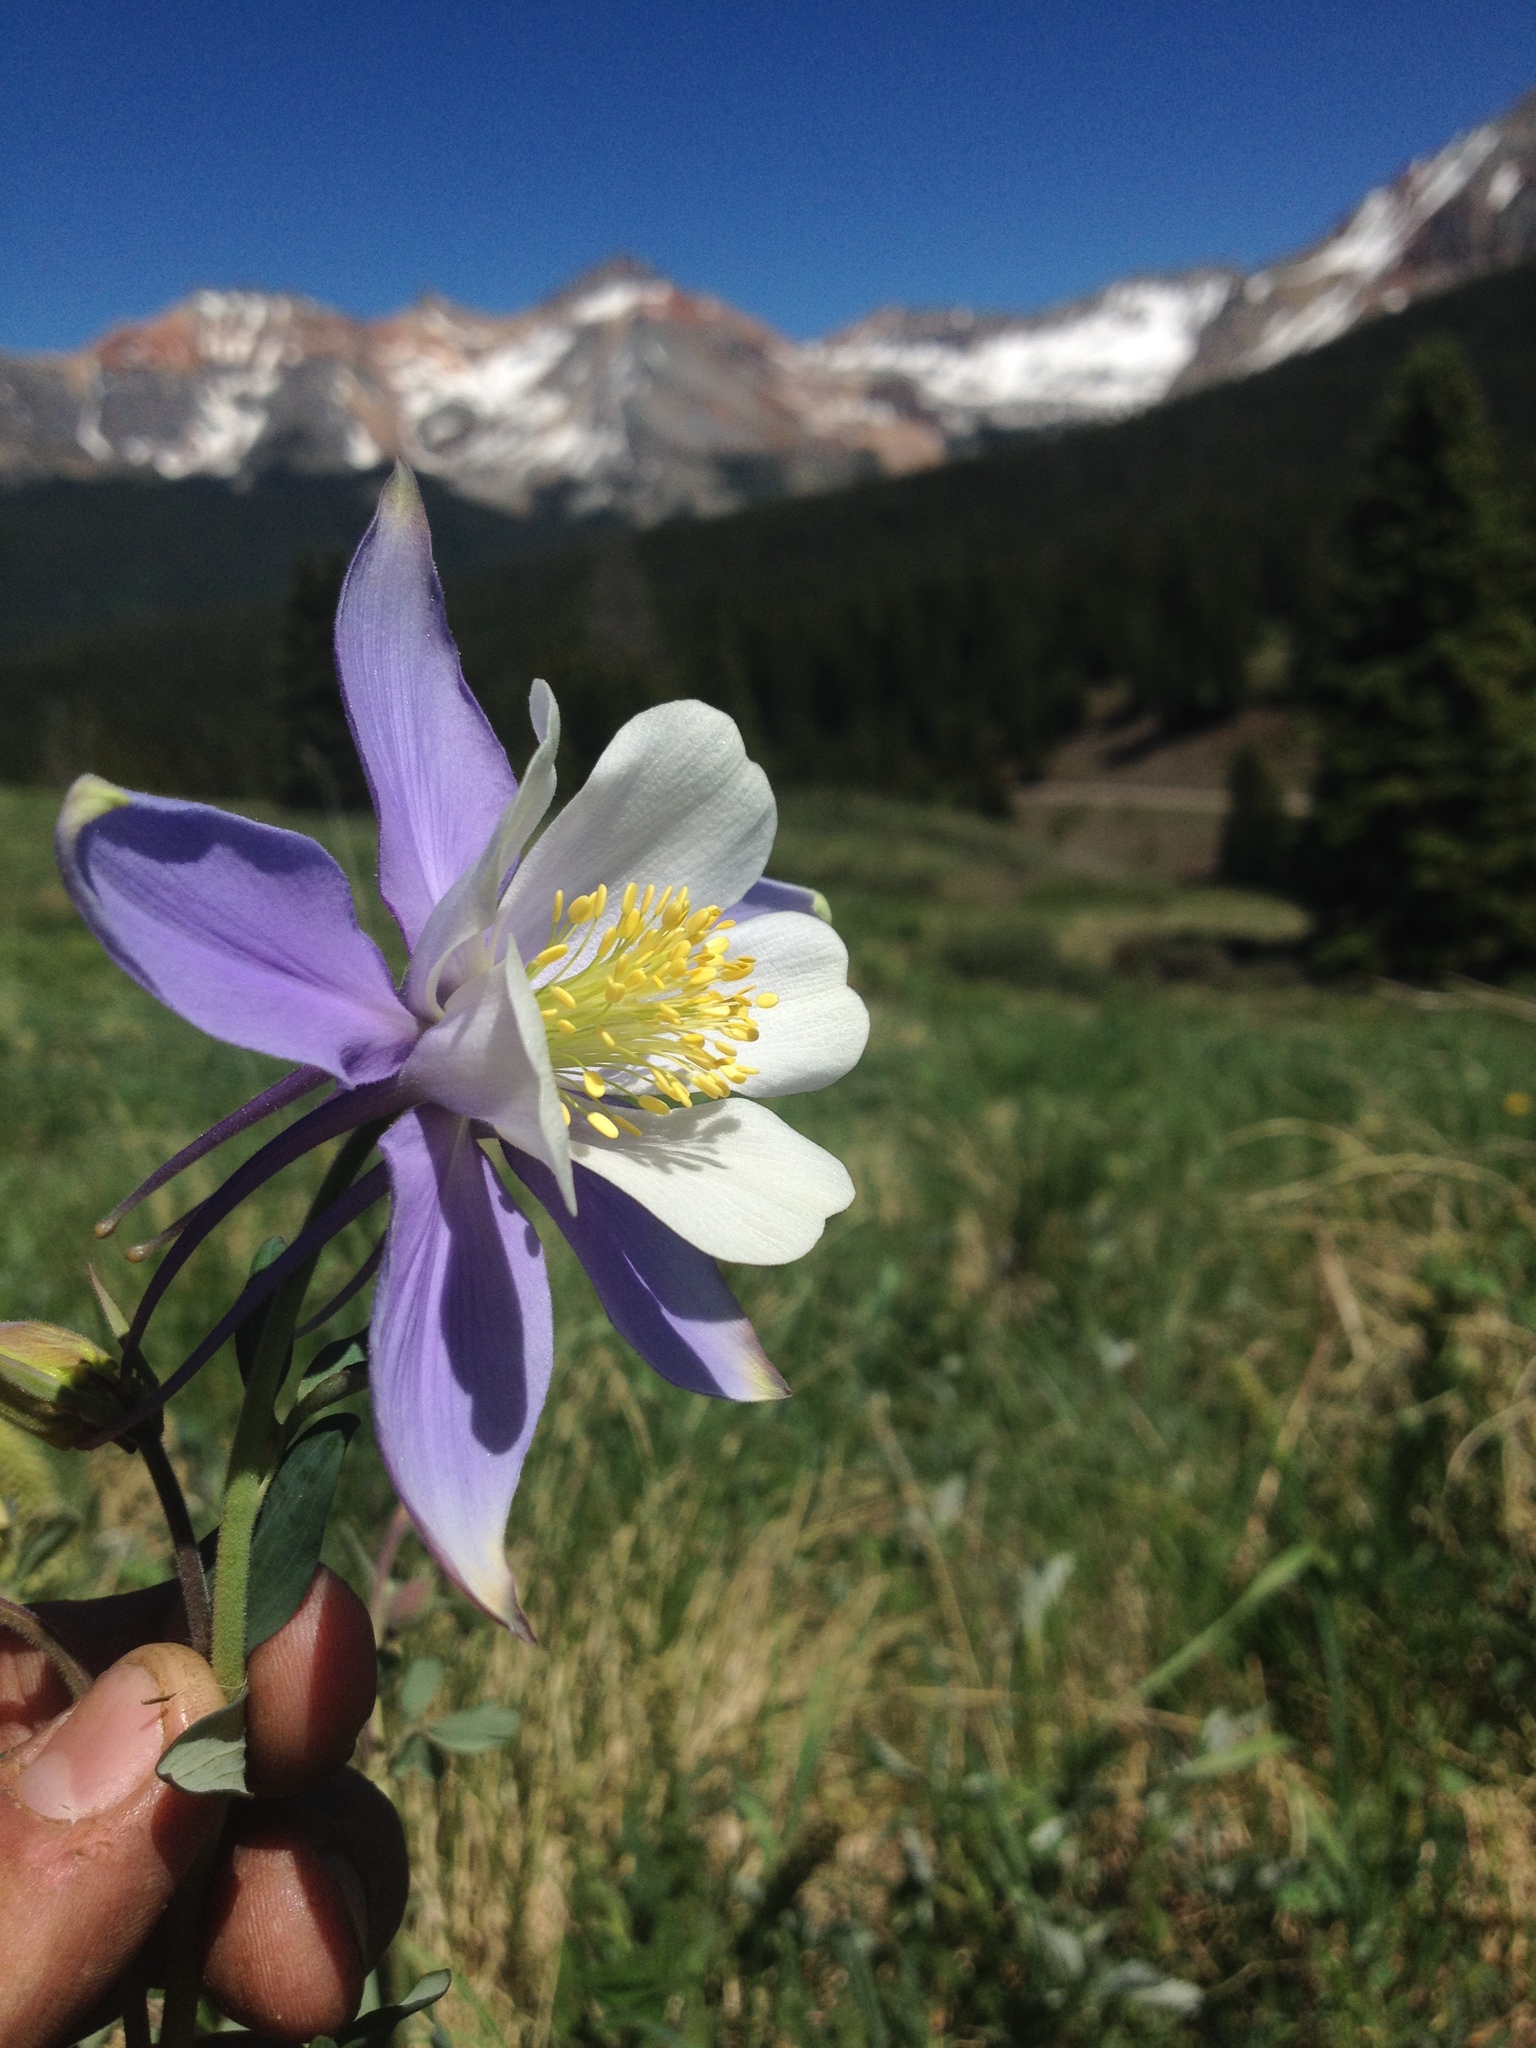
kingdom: Plantae
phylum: Tracheophyta
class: Magnoliopsida
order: Ranunculales
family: Ranunculaceae
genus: Aquilegia
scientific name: Aquilegia coerulea
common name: Rocky mountain columbine
